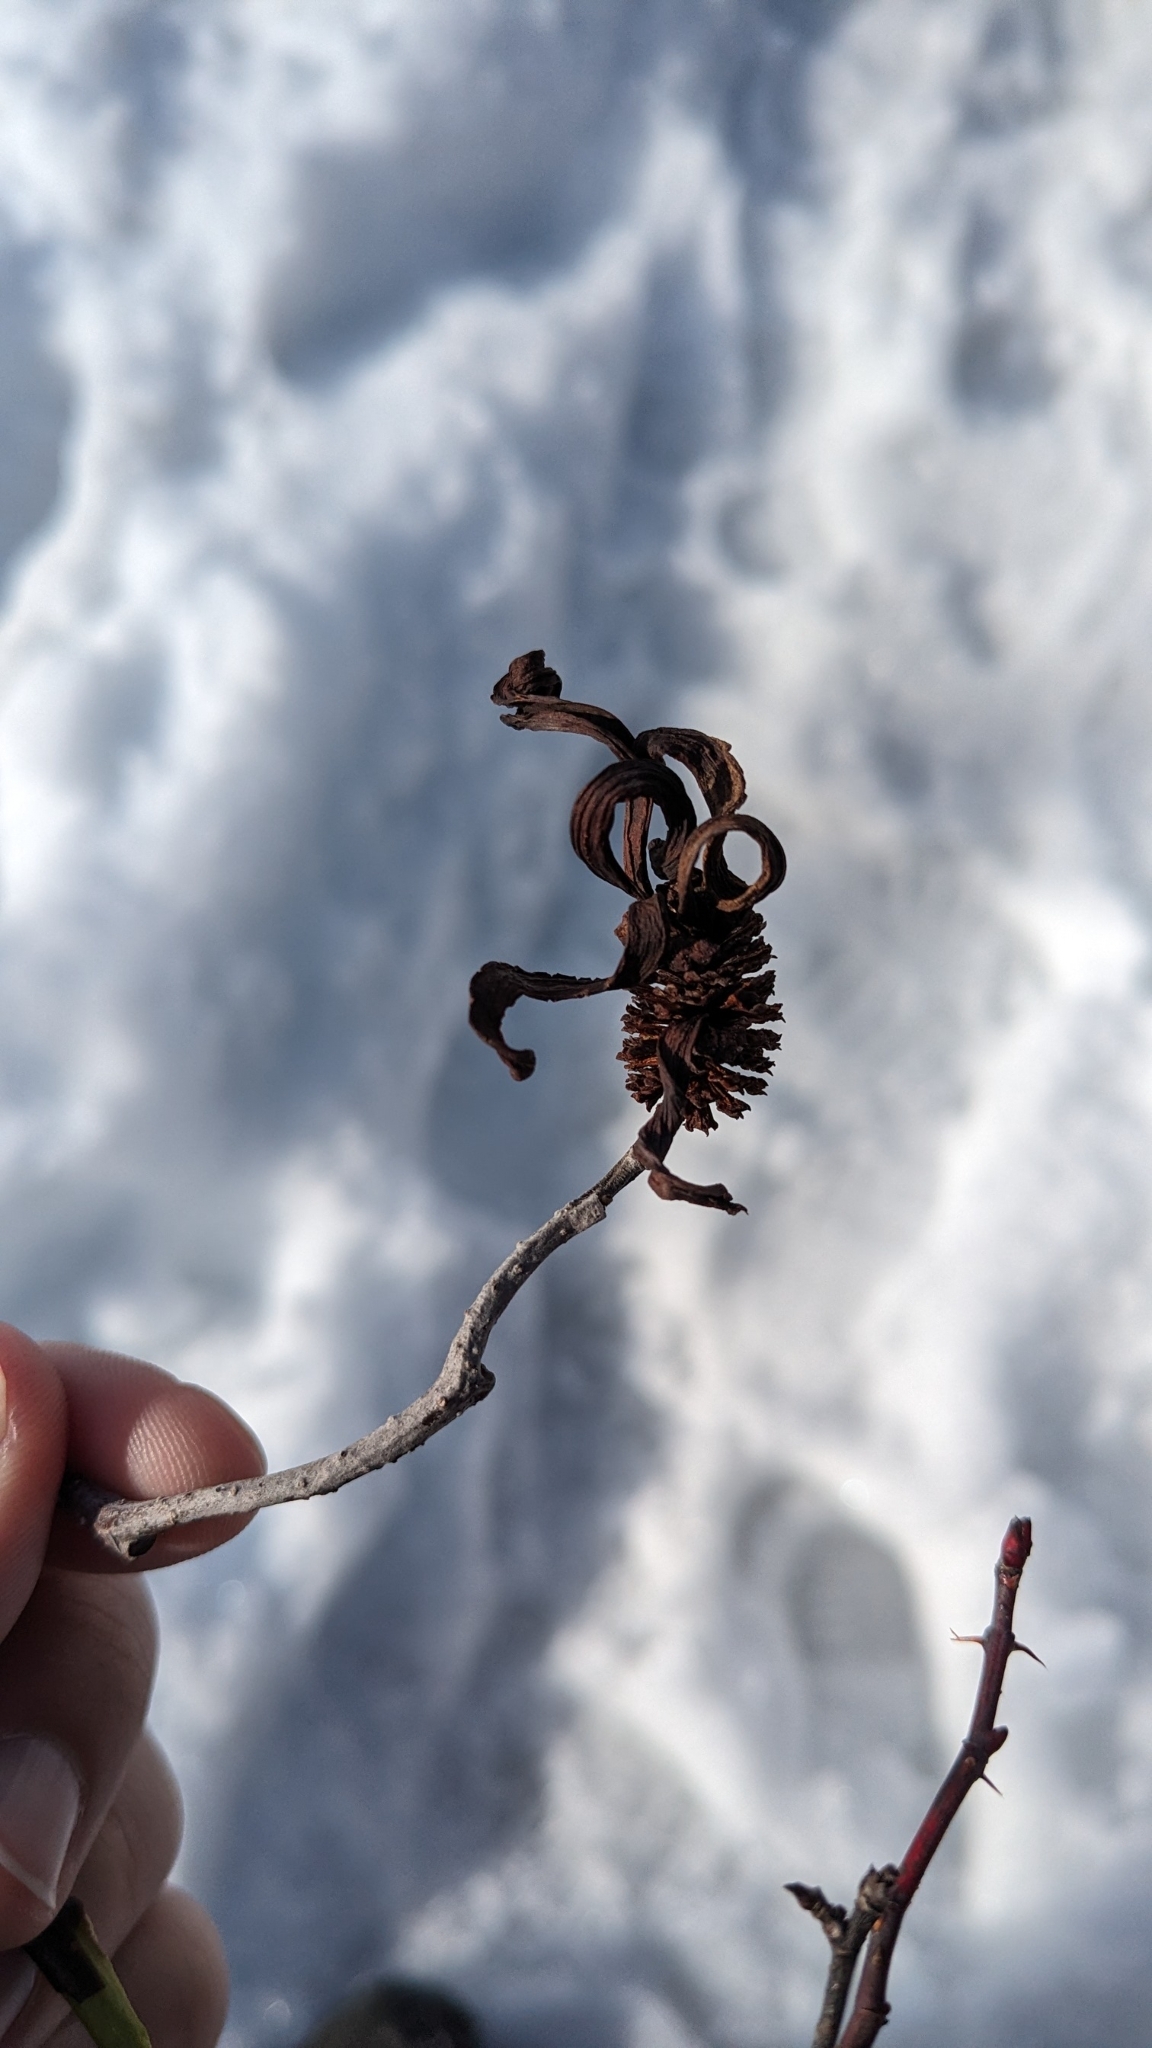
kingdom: Fungi
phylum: Ascomycota
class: Taphrinomycetes
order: Taphrinales
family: Taphrinaceae
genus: Taphrina
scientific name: Taphrina robinsoniana
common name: Eastern american alder tongue gall fungus
